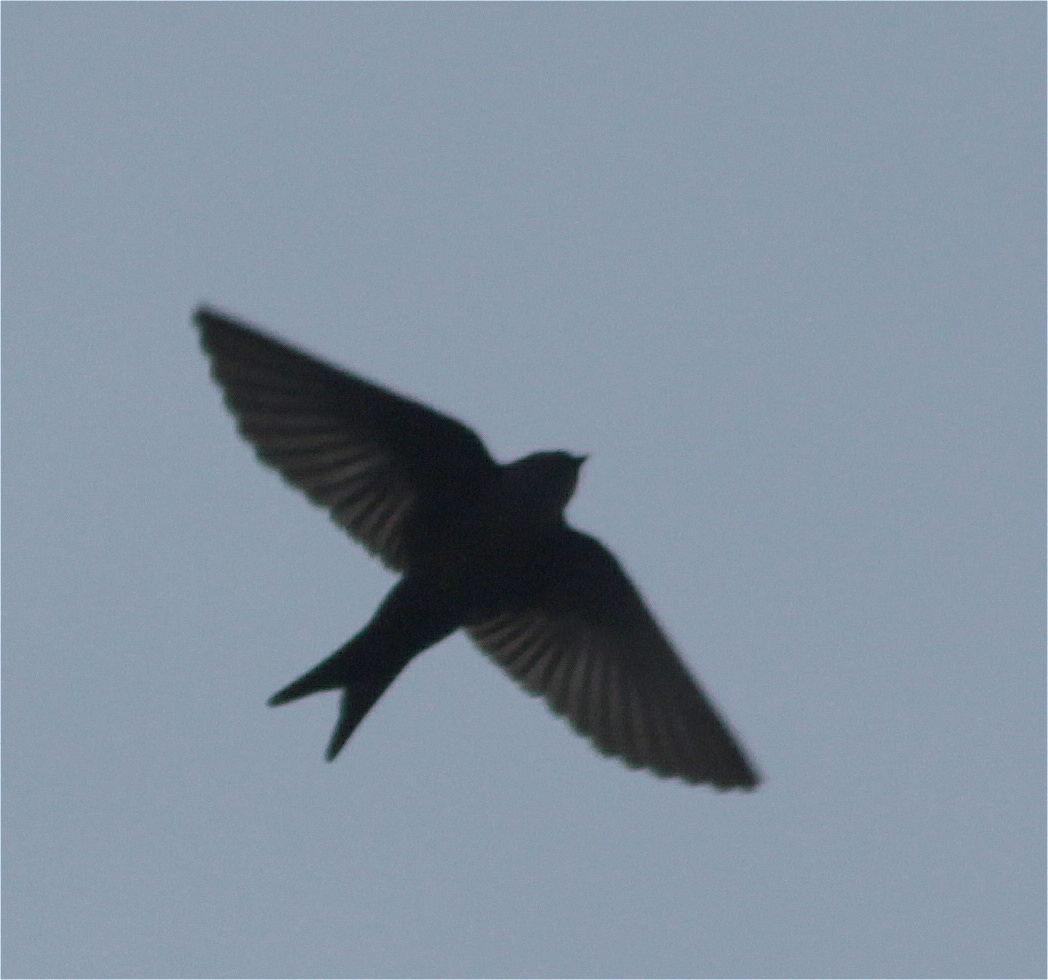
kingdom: Animalia
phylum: Chordata
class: Aves
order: Passeriformes
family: Hirundinidae
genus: Notiochelidon
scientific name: Notiochelidon murina
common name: Brown-bellied swallow
